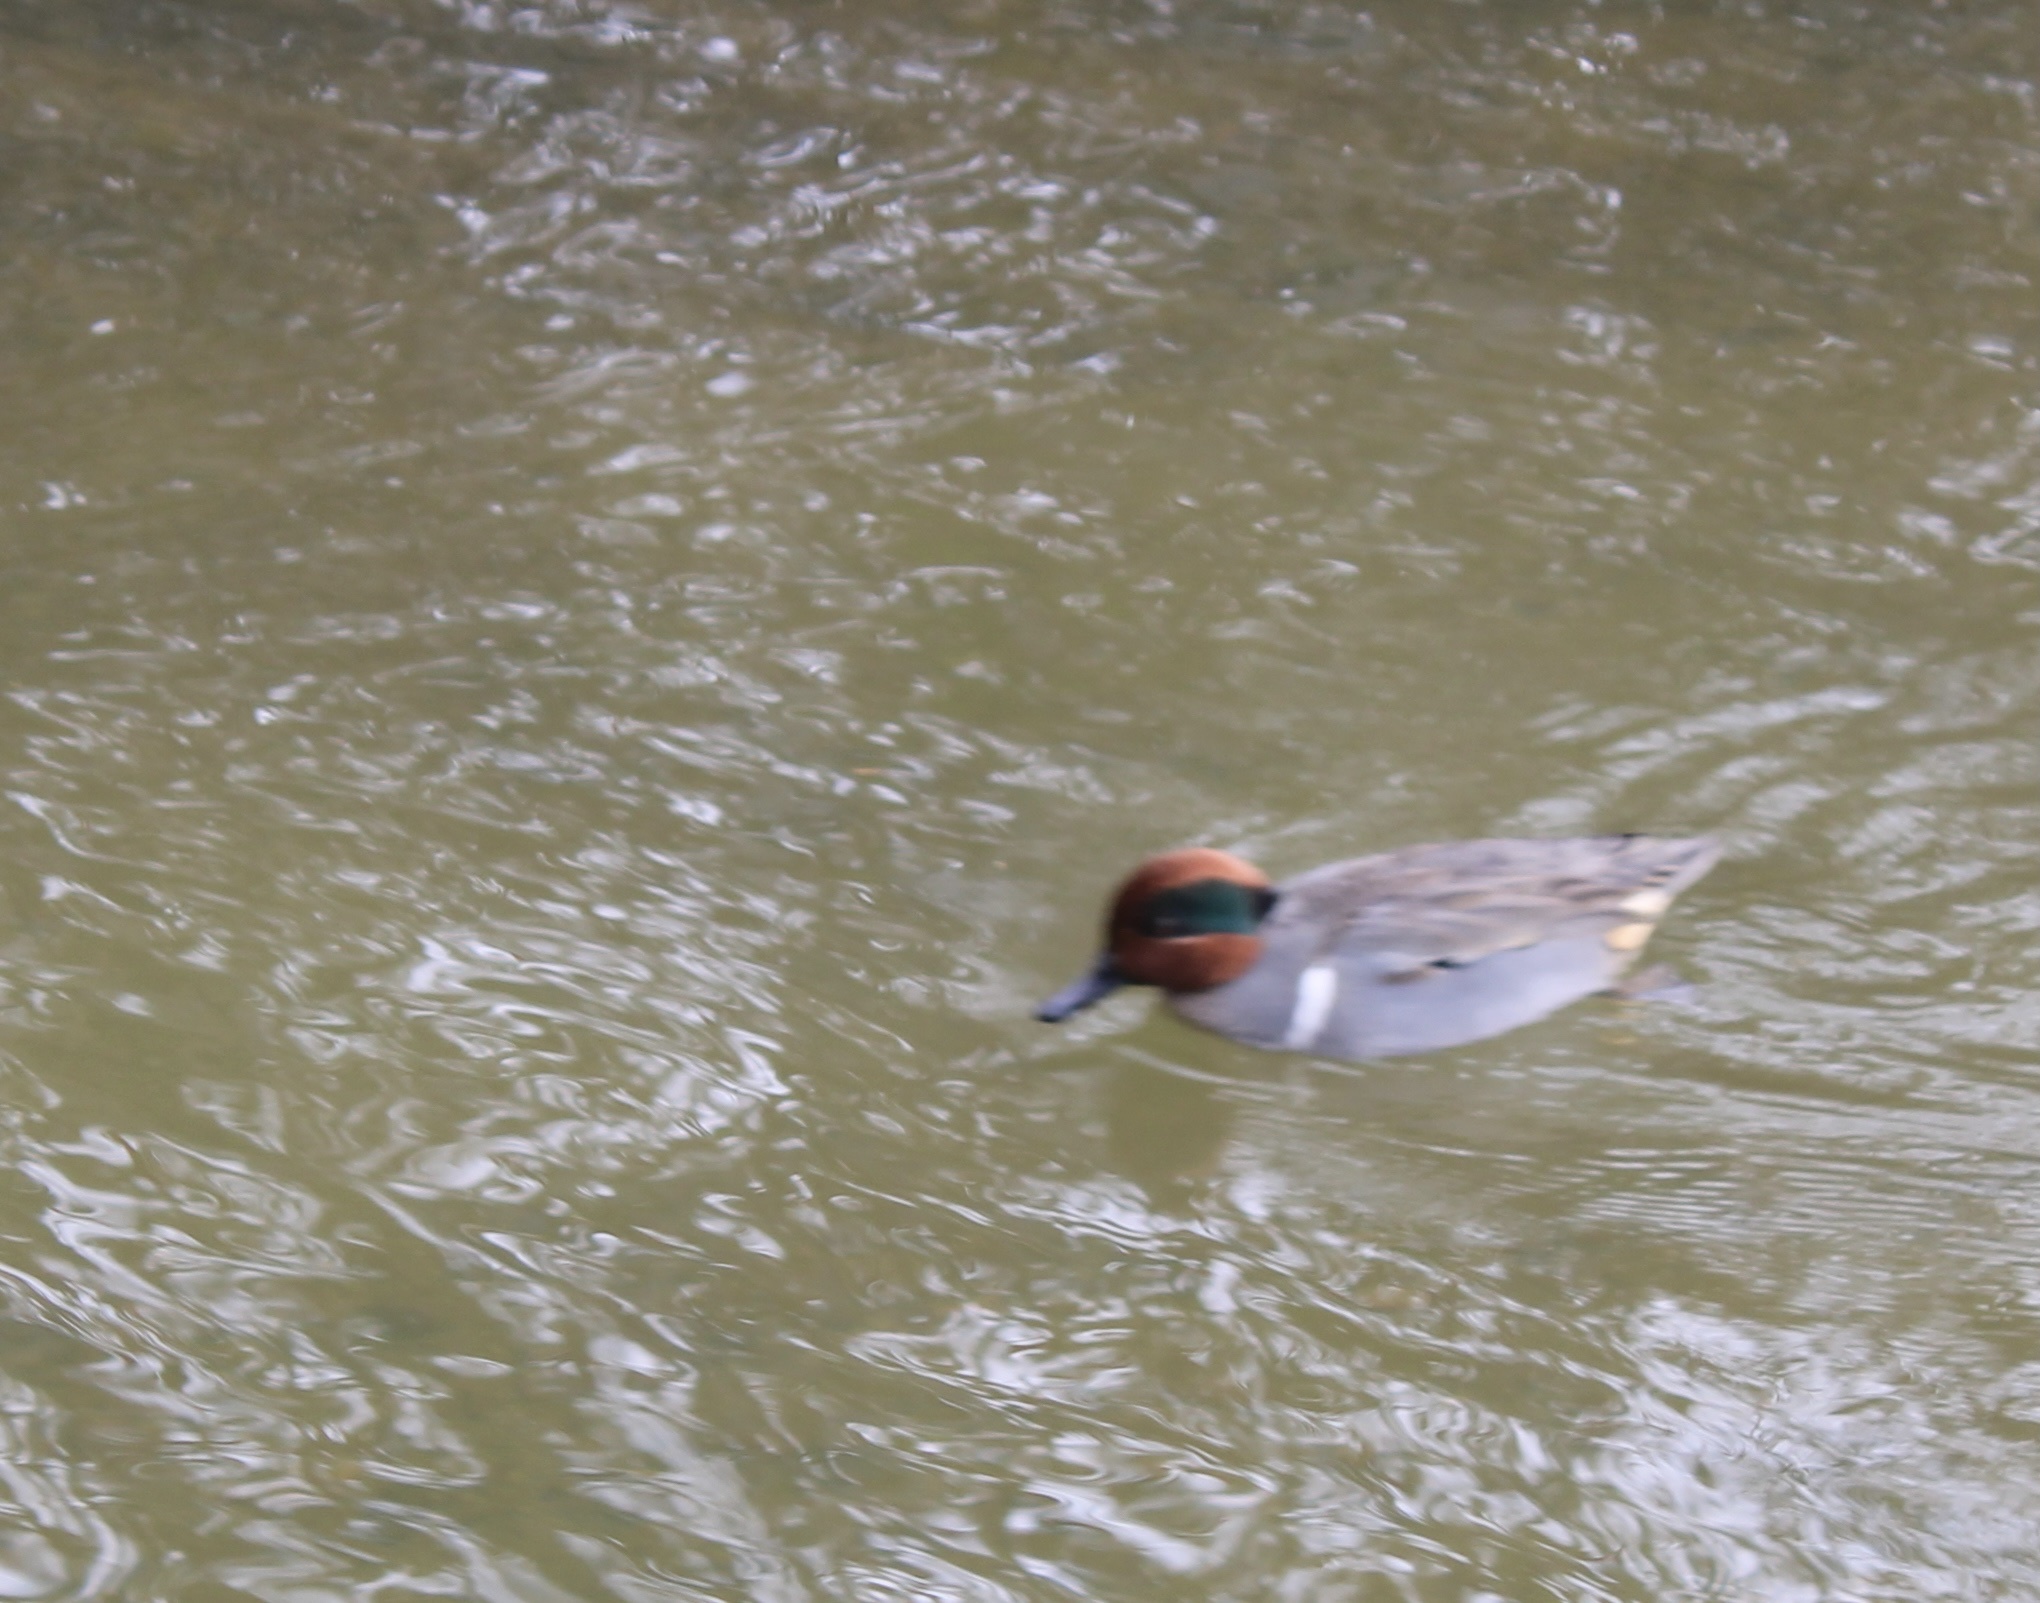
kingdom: Animalia
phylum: Chordata
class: Aves
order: Anseriformes
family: Anatidae
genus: Anas
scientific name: Anas crecca
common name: Eurasian teal
